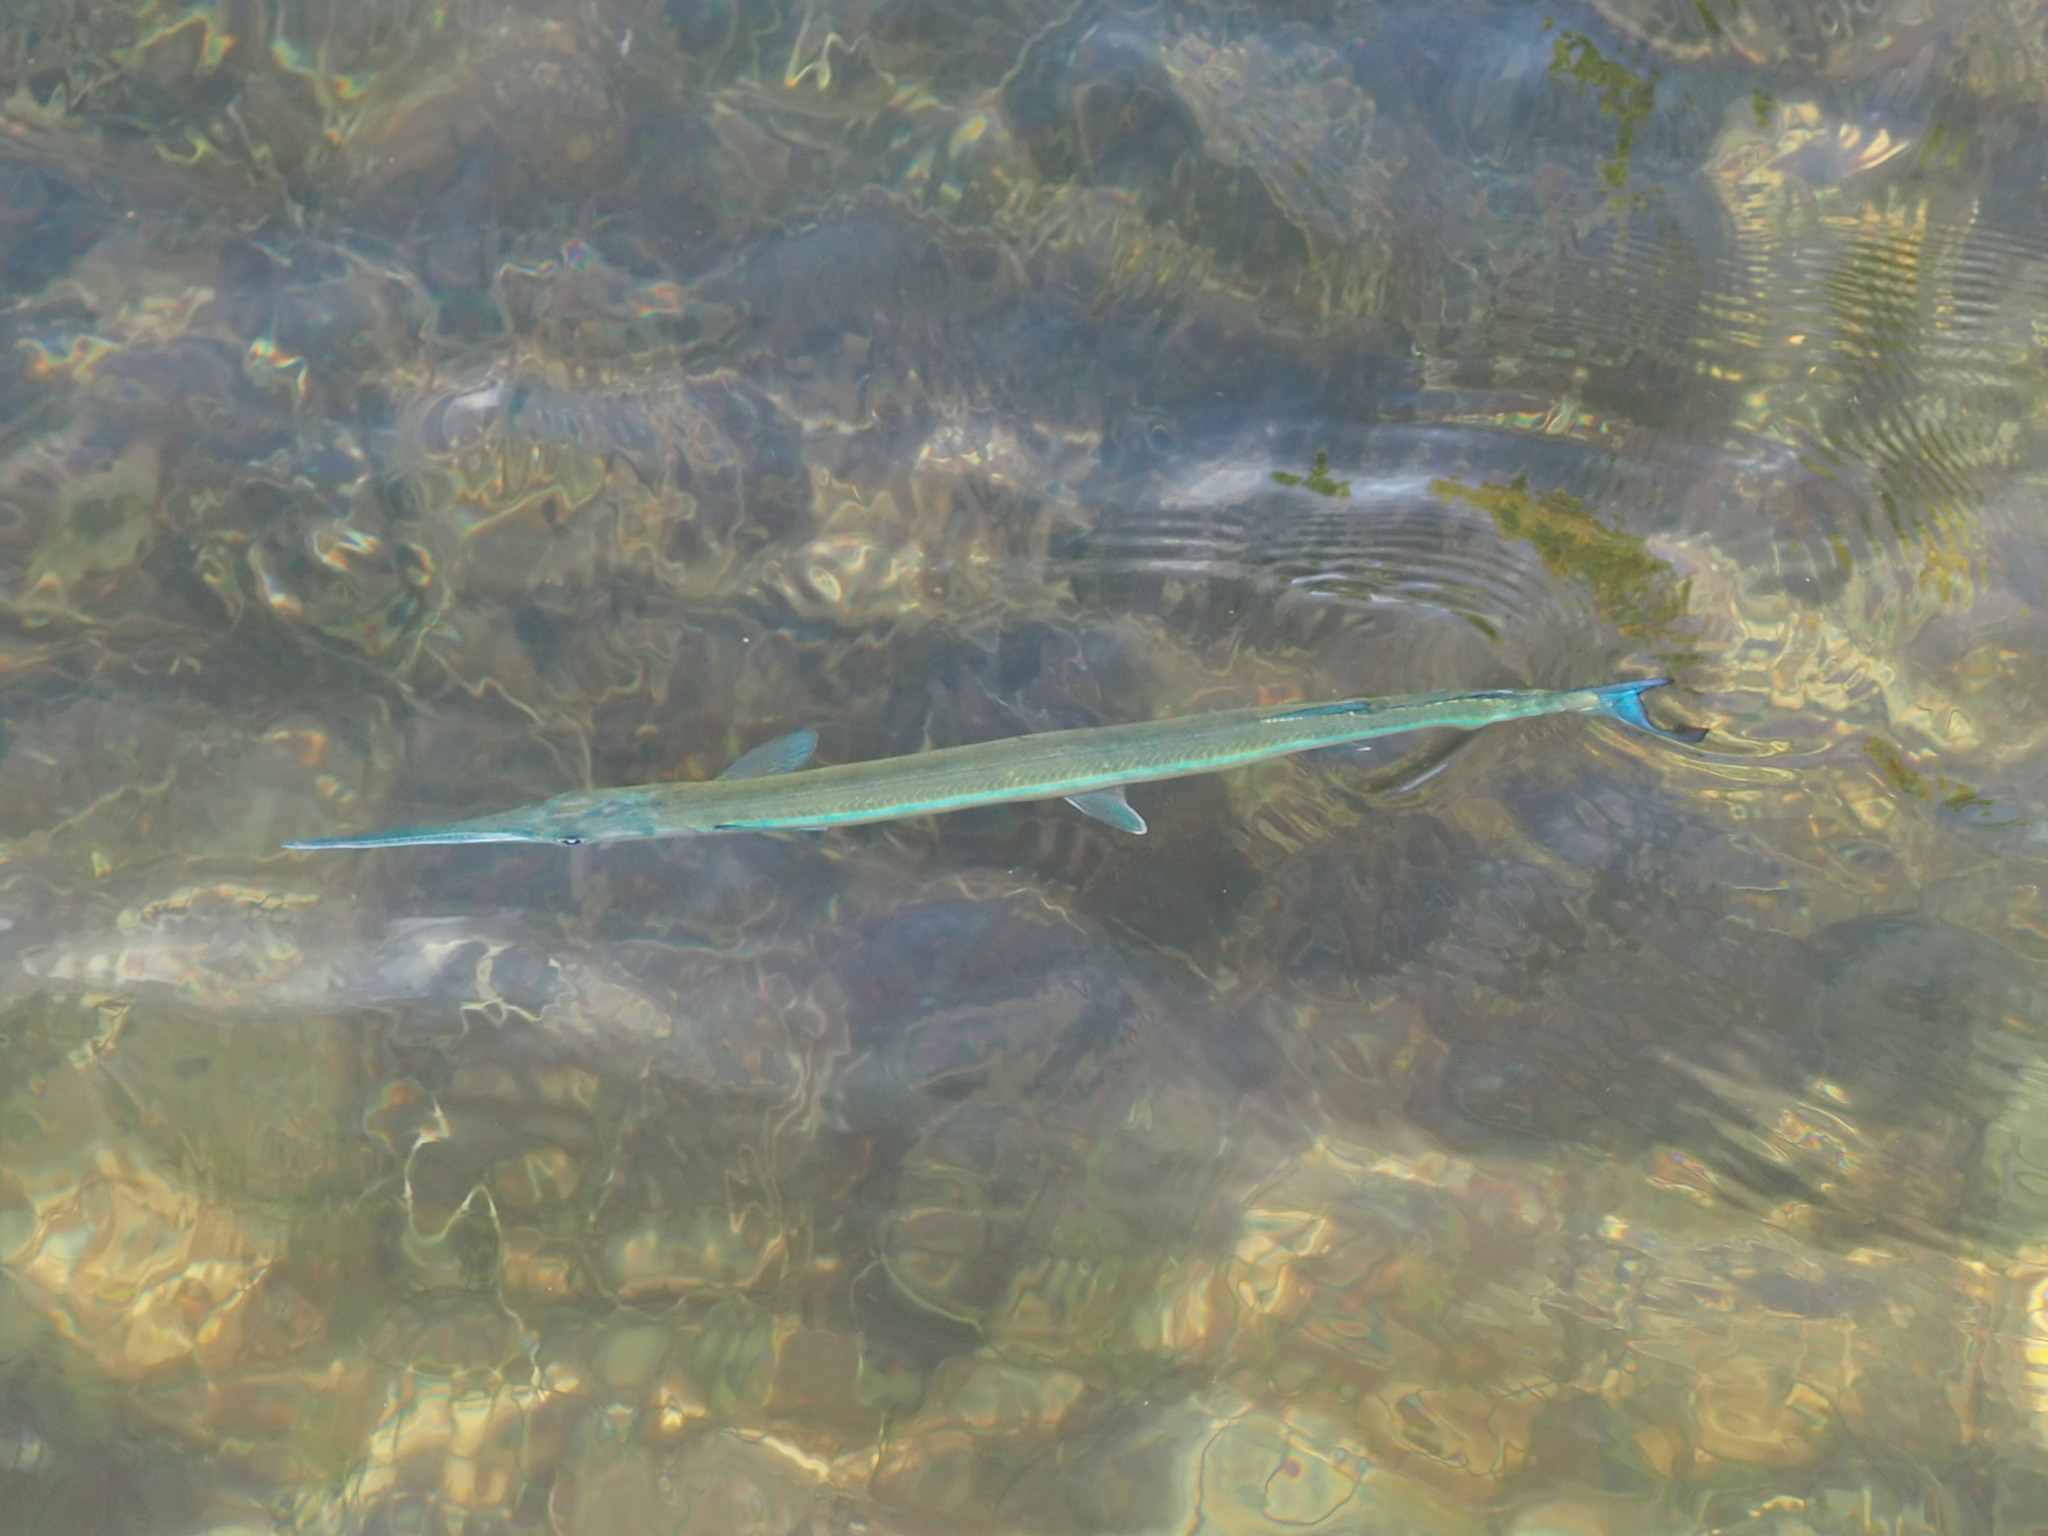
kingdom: Animalia
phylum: Chordata
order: Beloniformes
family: Belonidae
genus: Tylosurus
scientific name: Tylosurus crocodilus
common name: Houndfish
